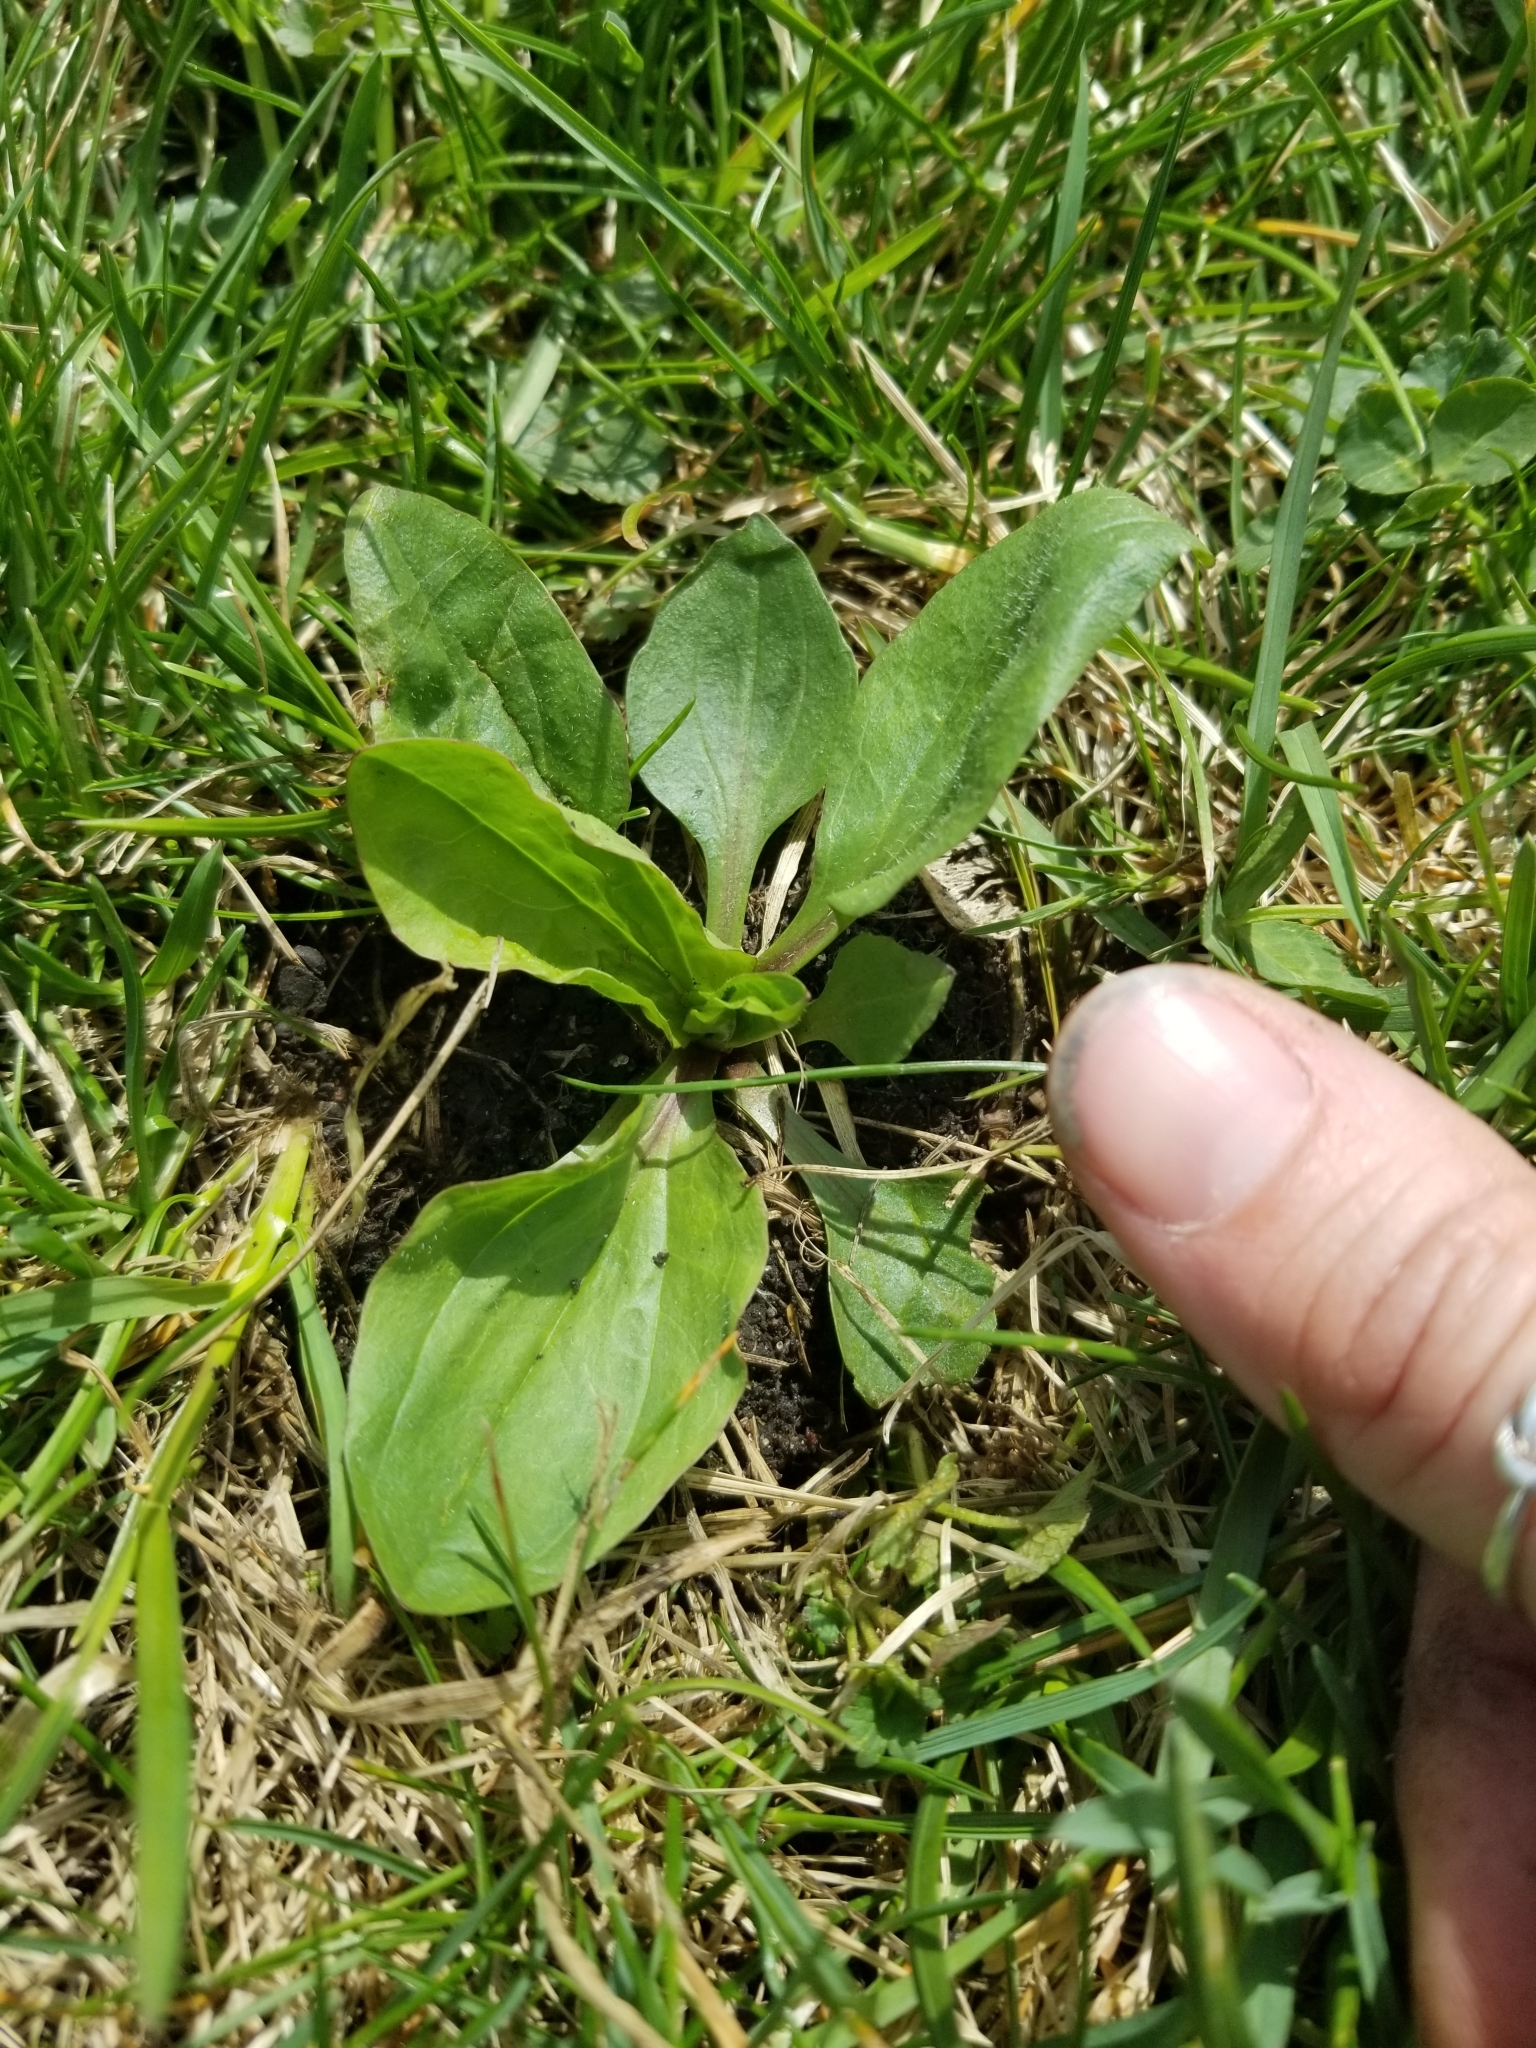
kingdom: Plantae
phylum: Tracheophyta
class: Magnoliopsida
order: Lamiales
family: Plantaginaceae
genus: Plantago
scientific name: Plantago rugelii
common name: American plantain
